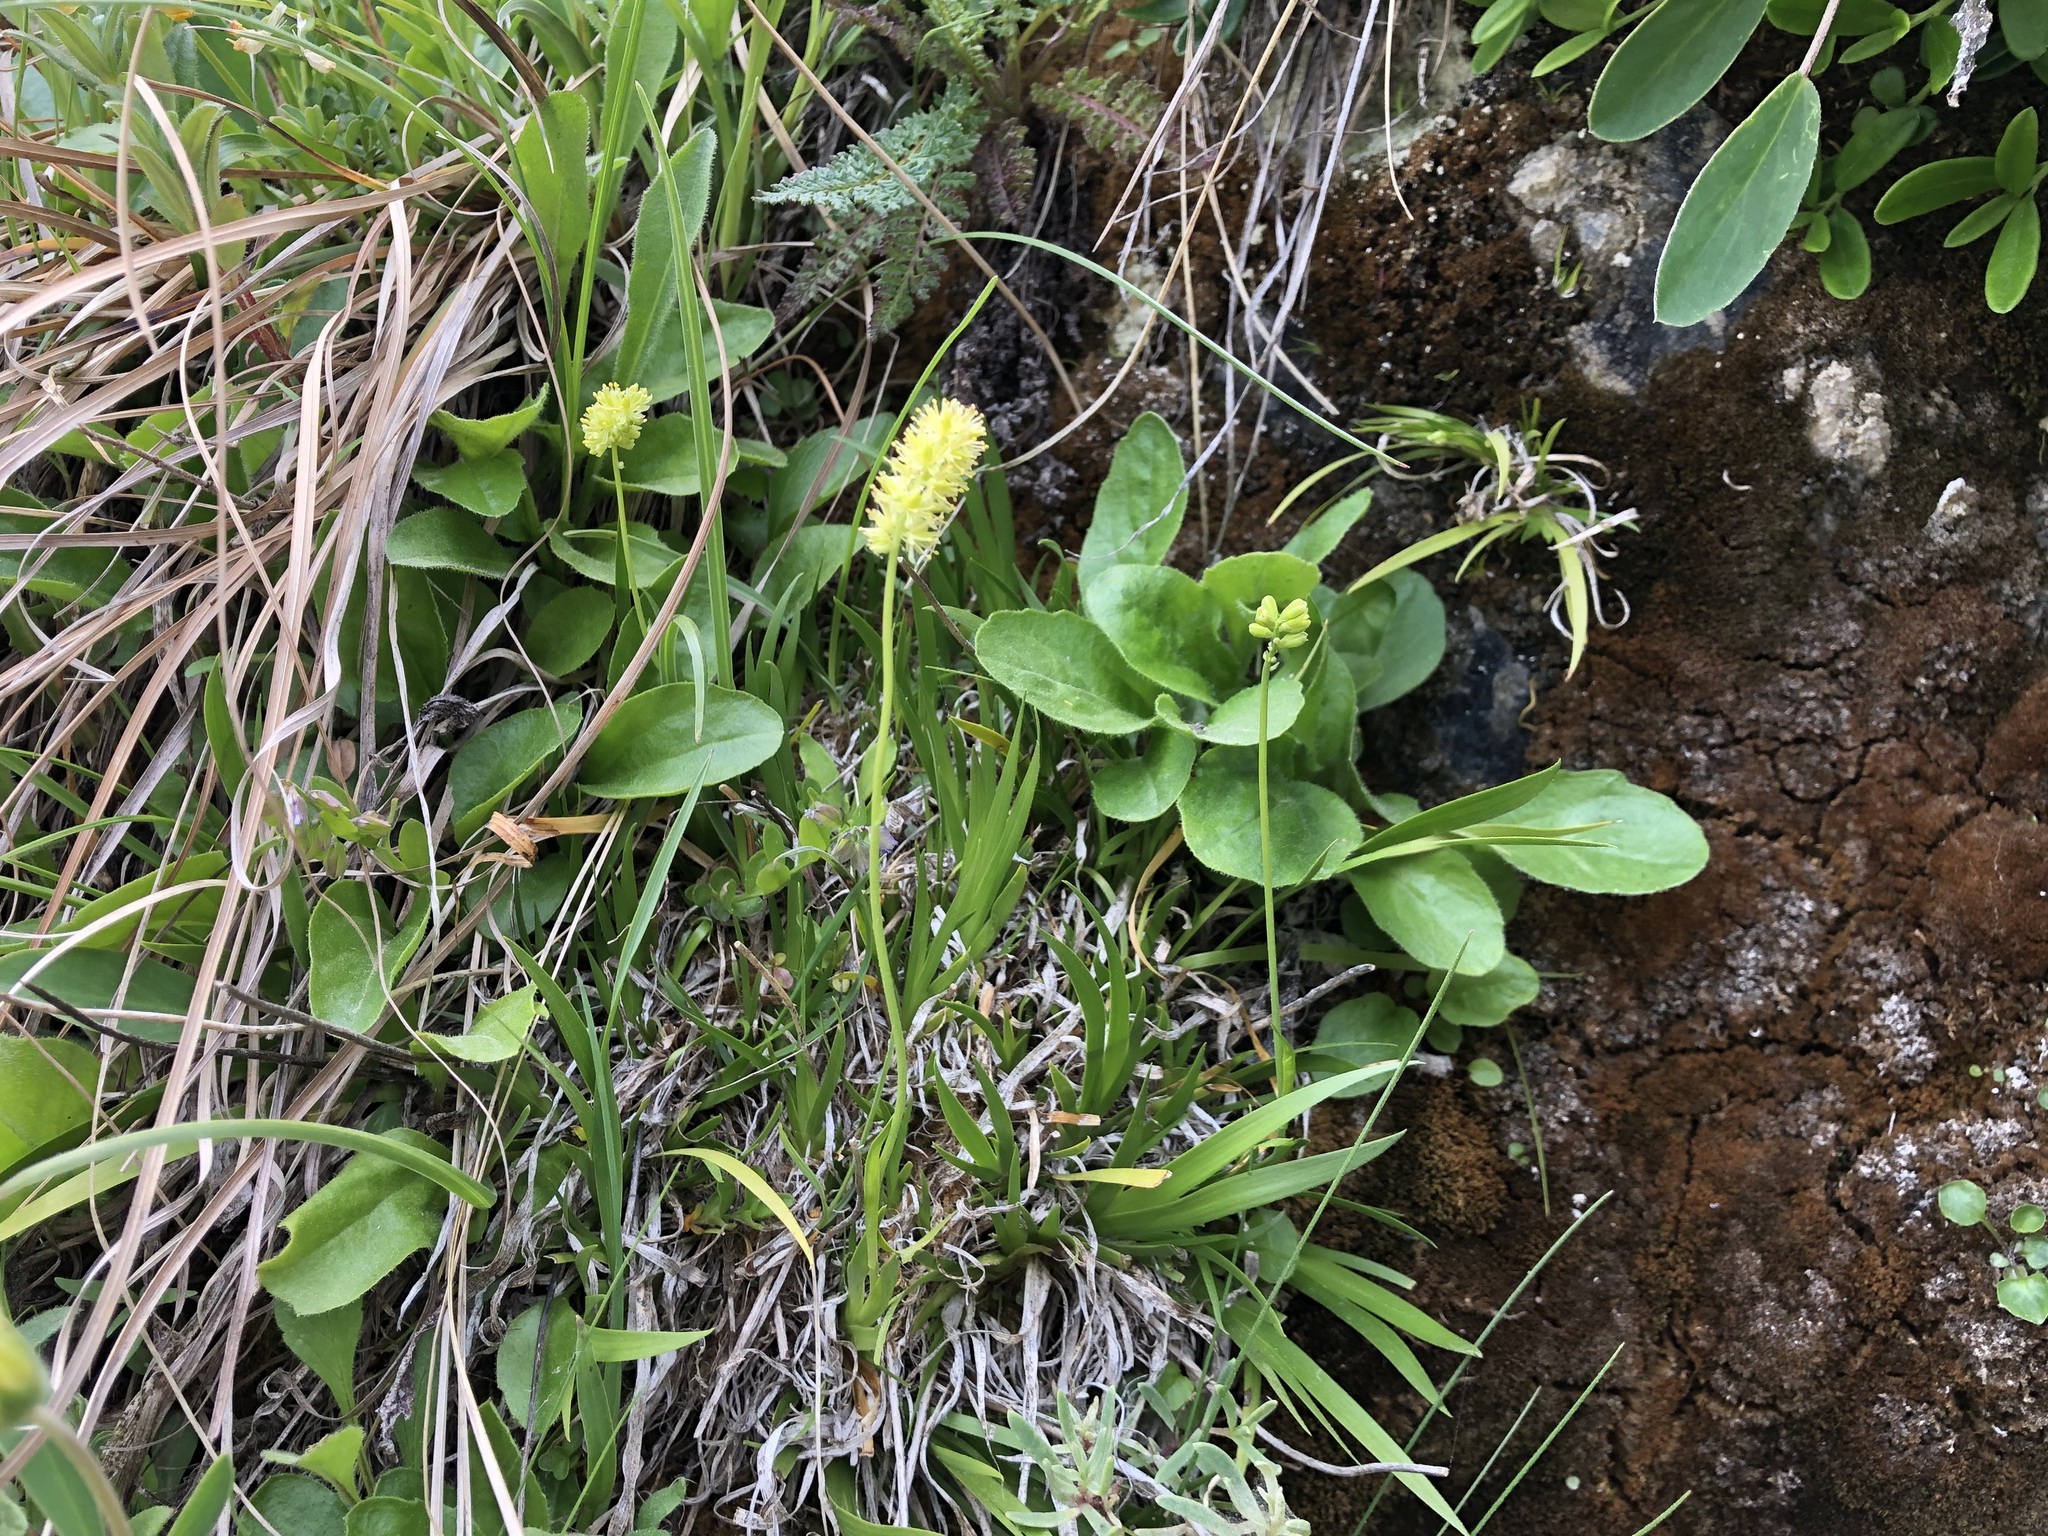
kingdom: Plantae
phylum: Tracheophyta
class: Liliopsida
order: Alismatales
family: Tofieldiaceae
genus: Tofieldia
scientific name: Tofieldia calyculata
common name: German-asphodel
